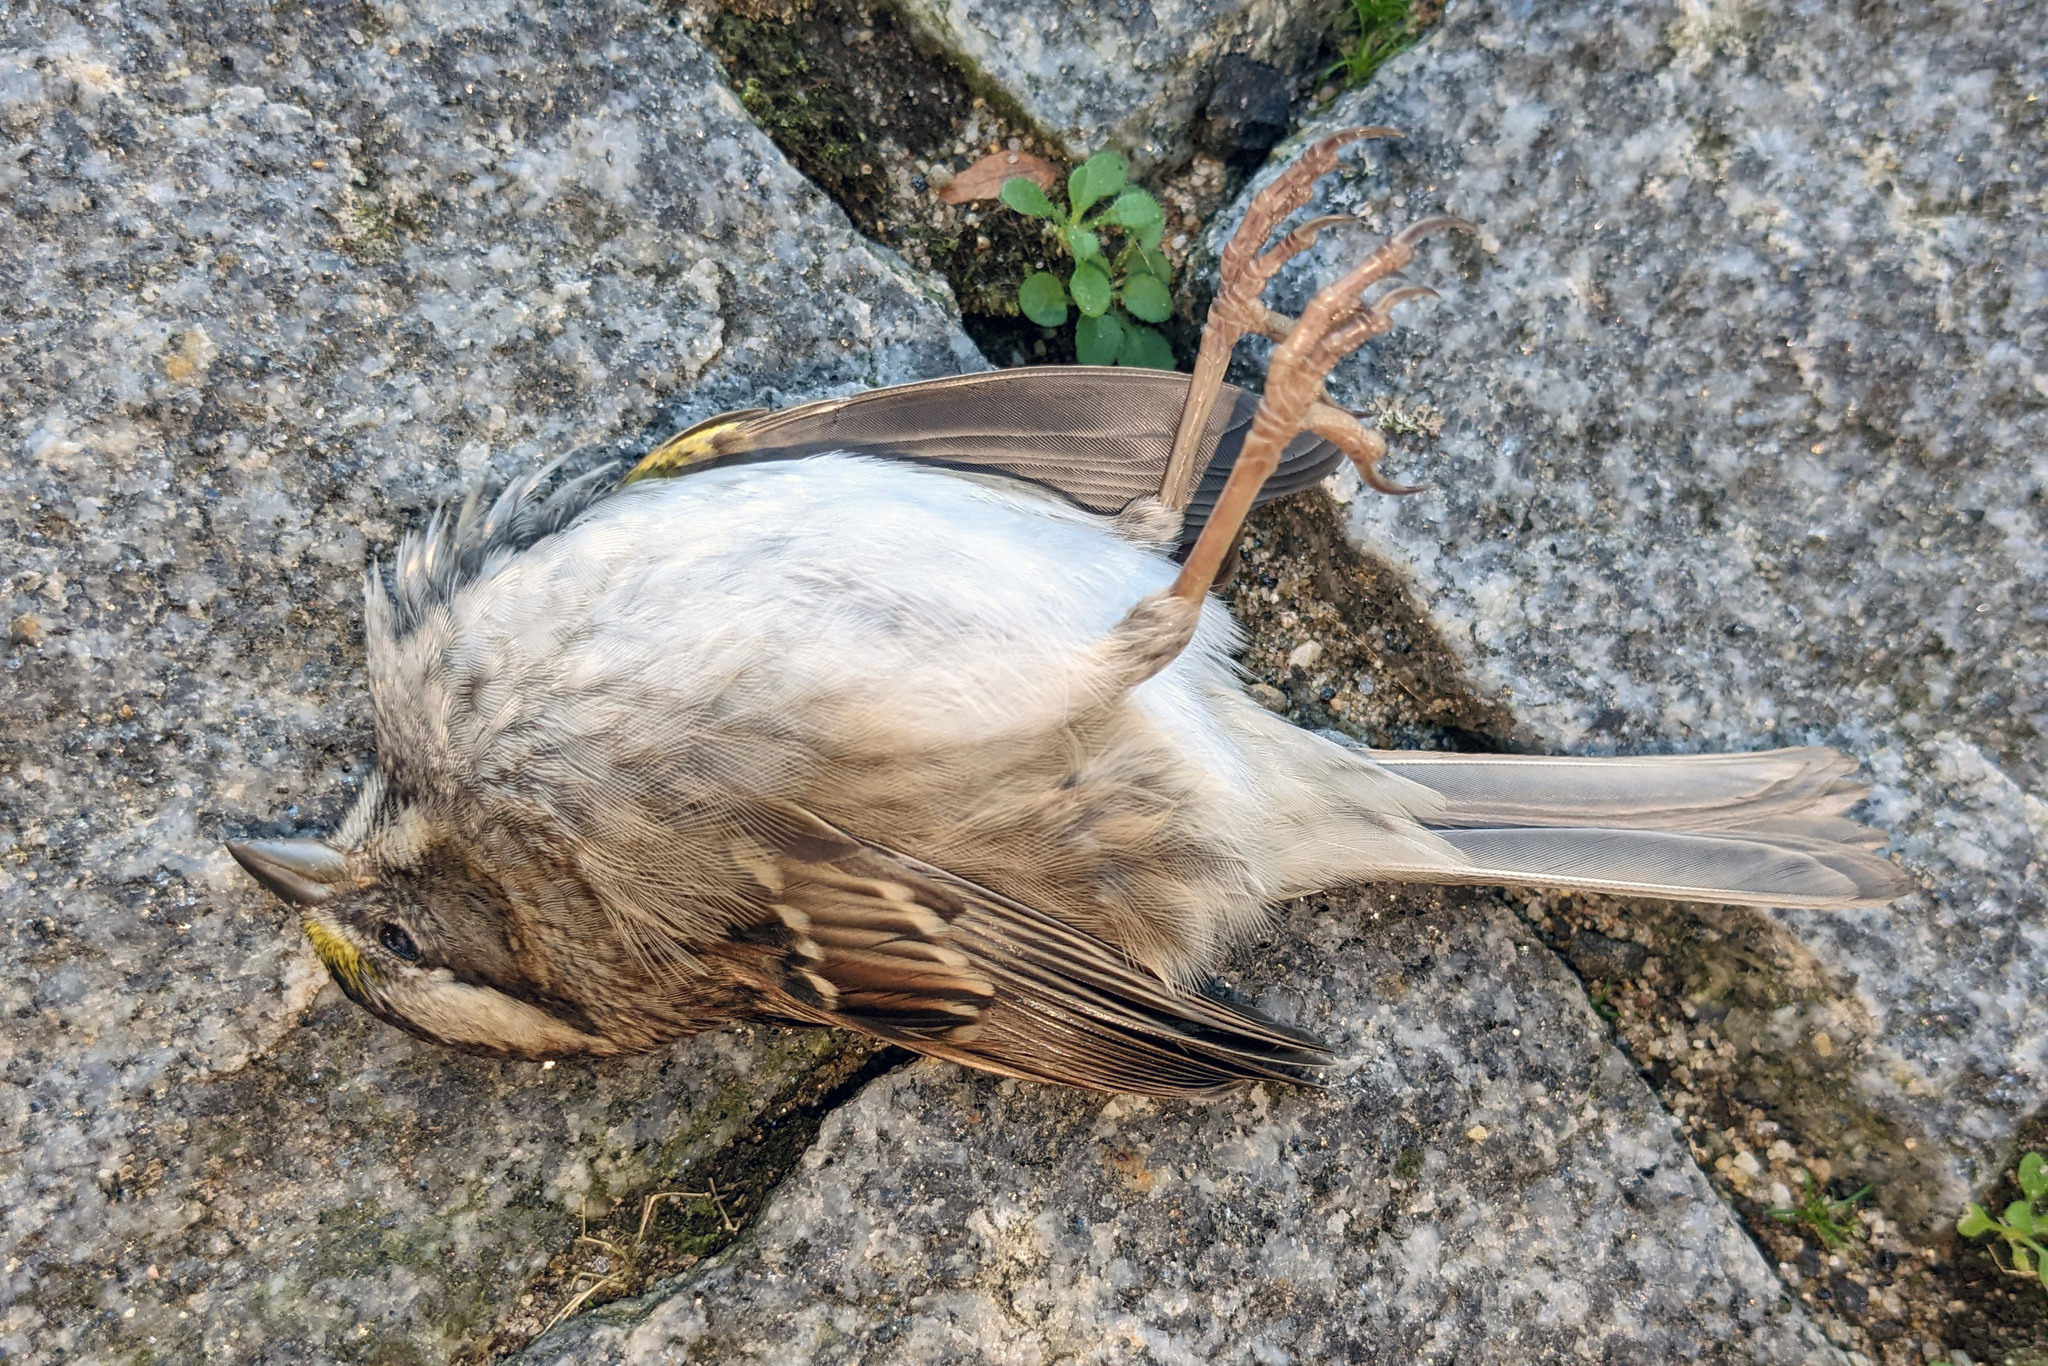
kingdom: Animalia
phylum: Chordata
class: Aves
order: Passeriformes
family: Passerellidae
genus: Zonotrichia
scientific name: Zonotrichia albicollis
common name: White-throated sparrow
